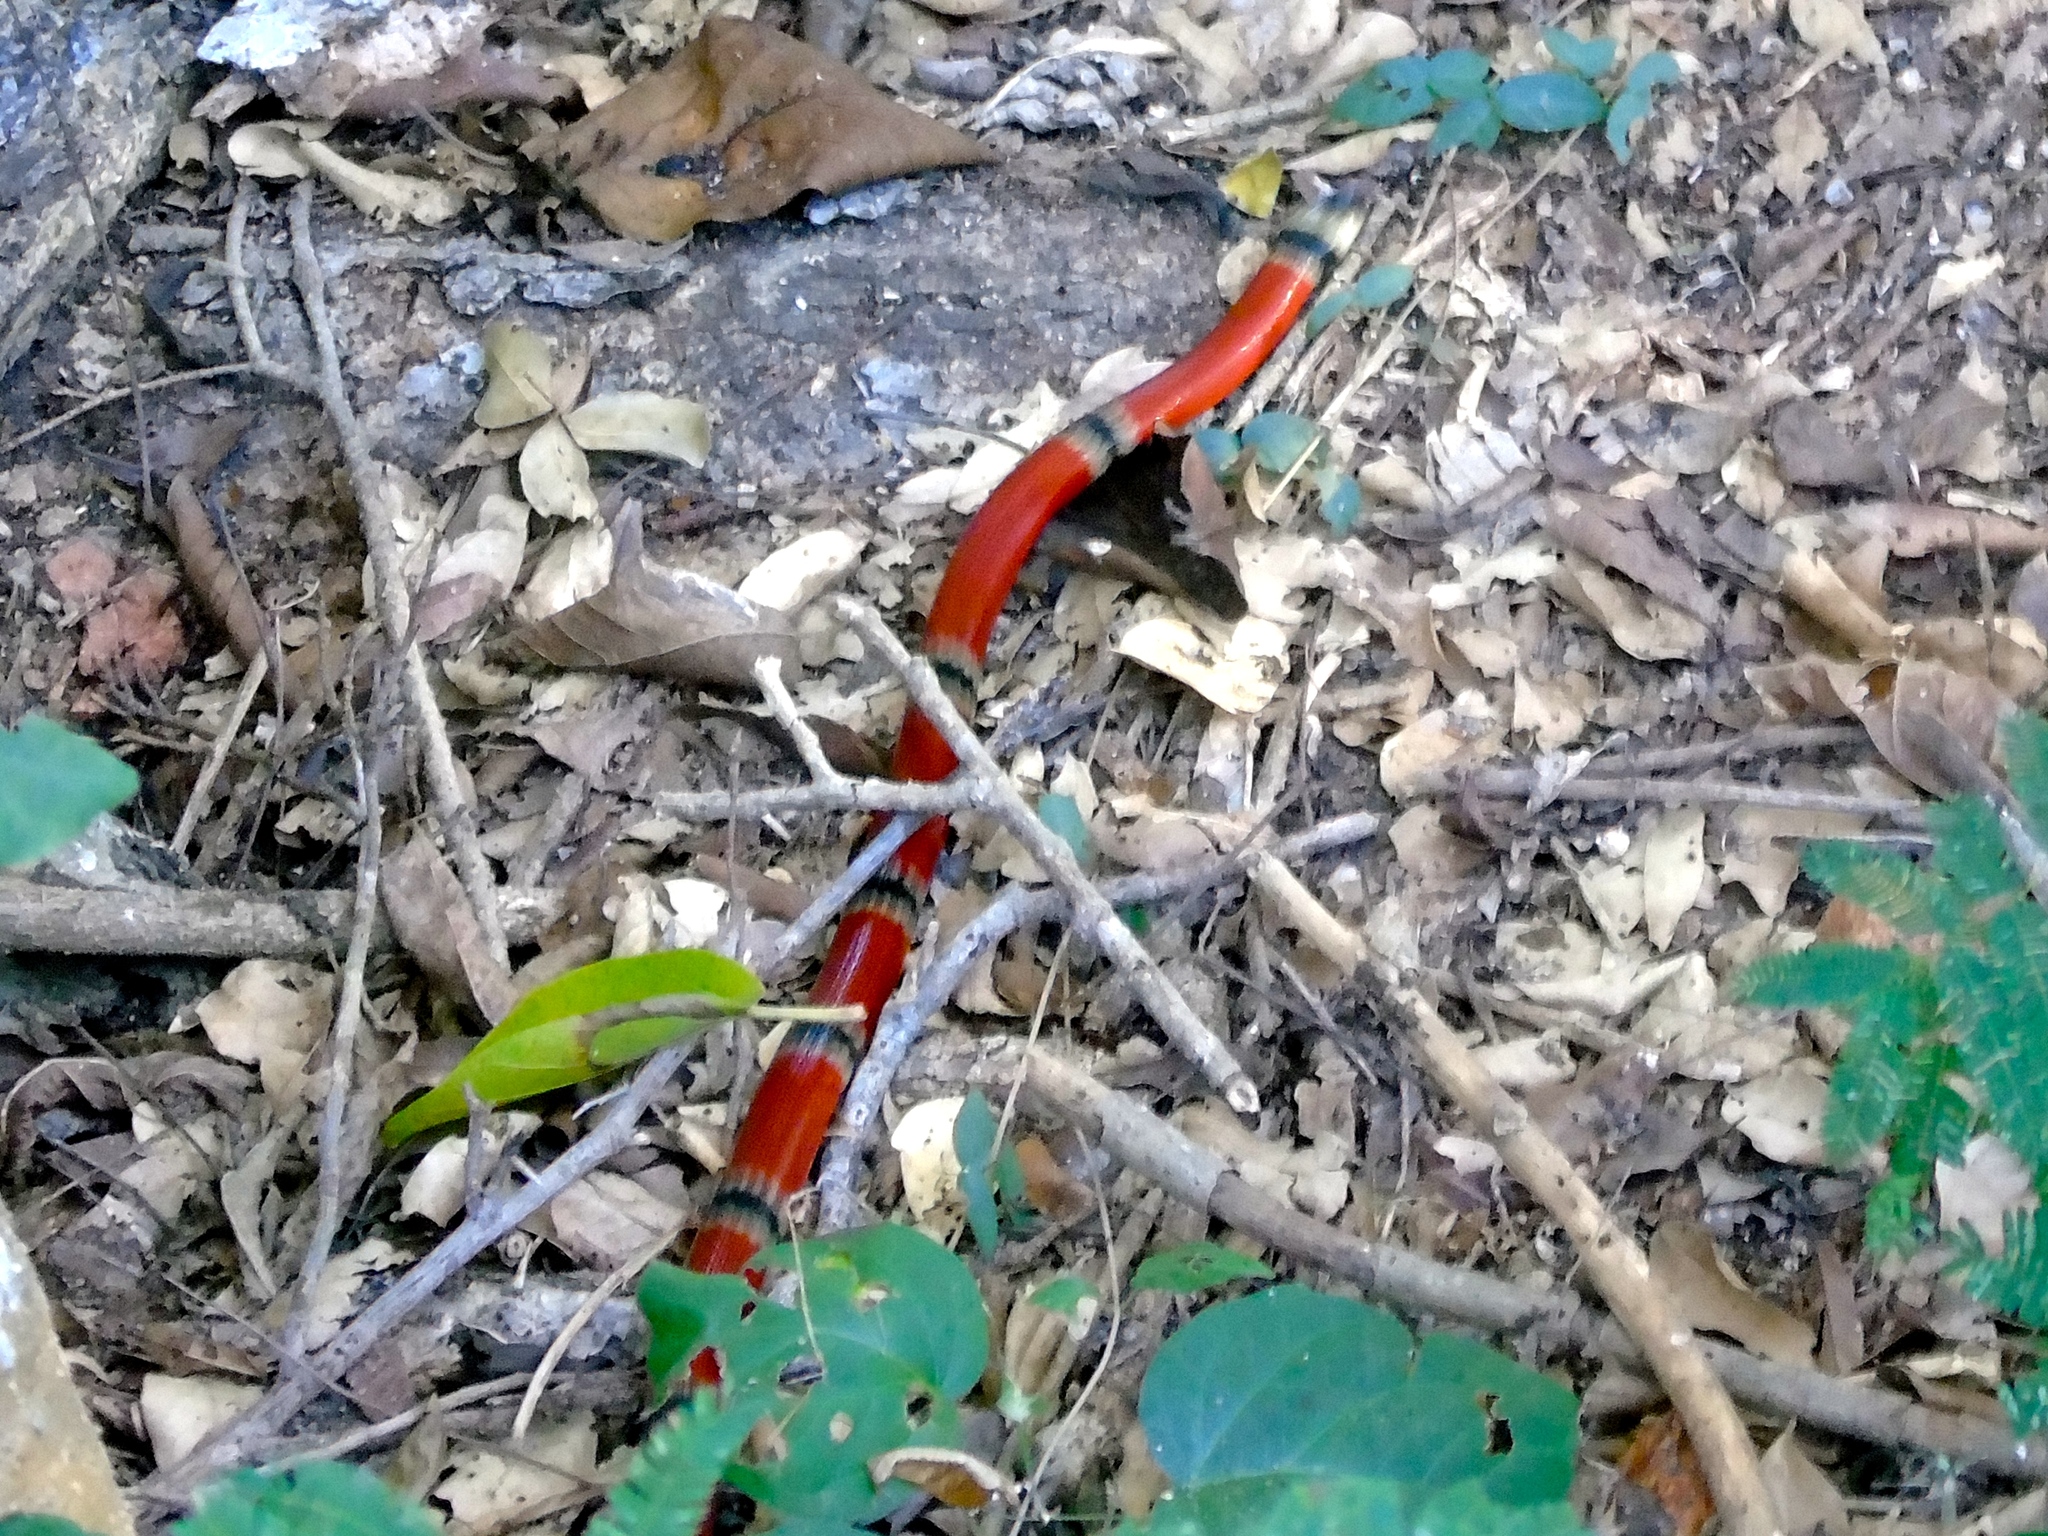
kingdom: Animalia
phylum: Chordata
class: Squamata
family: Elapidae
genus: Micrurus
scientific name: Micrurus distans
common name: Clear-banded coral snake
